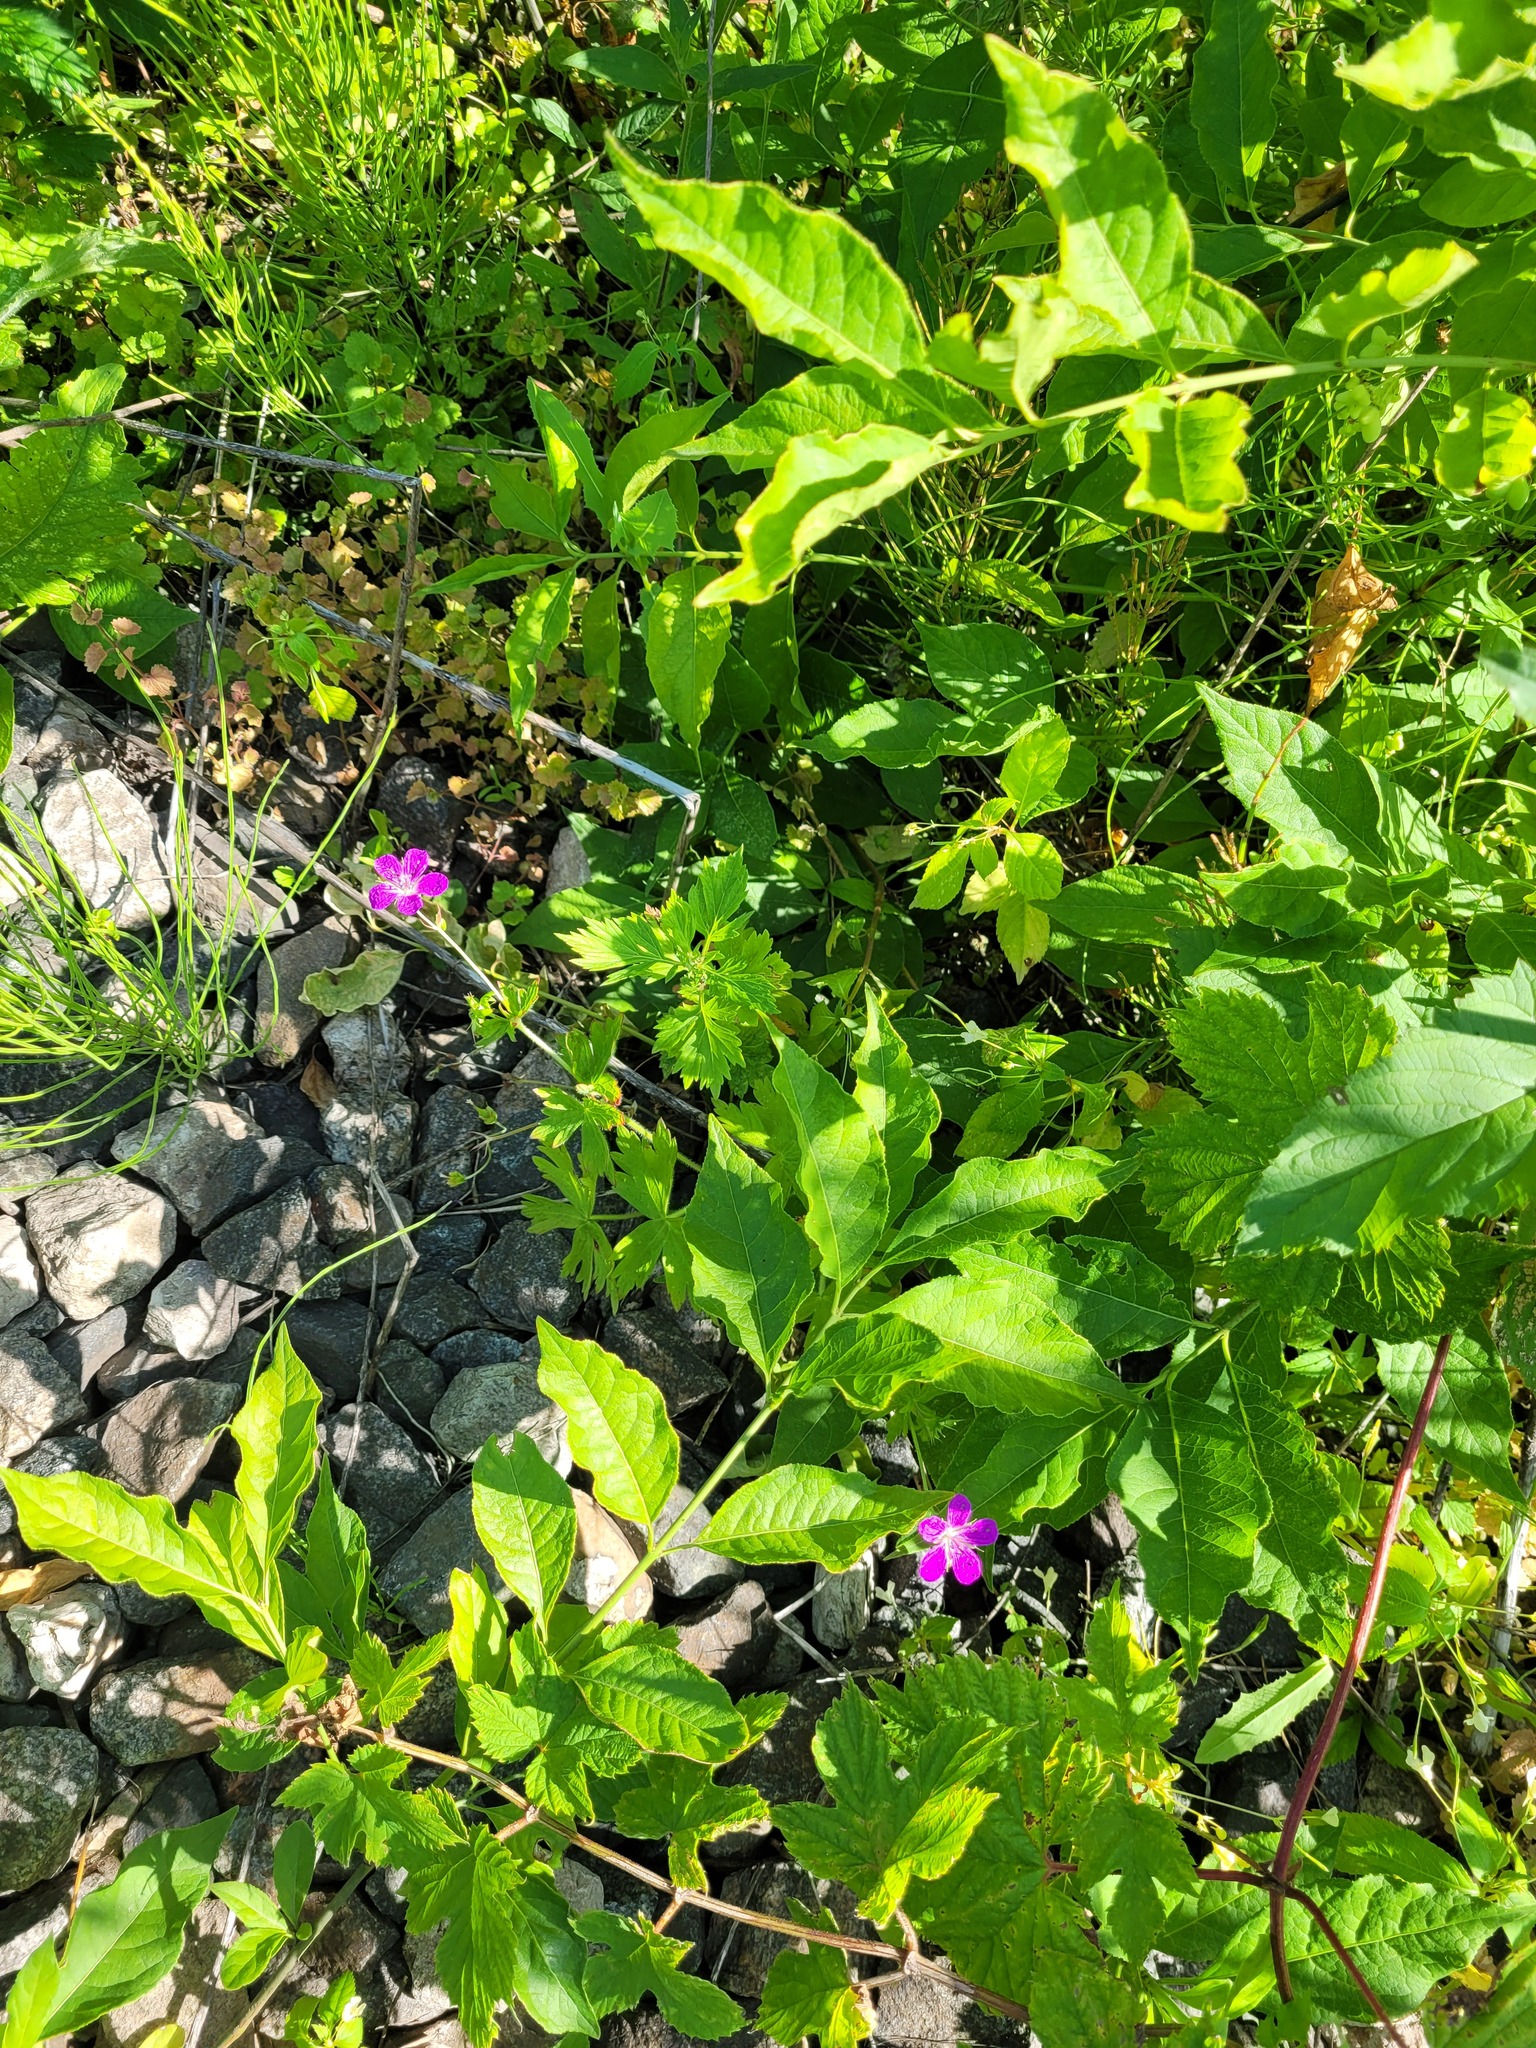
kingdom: Plantae
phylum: Tracheophyta
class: Magnoliopsida
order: Geraniales
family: Geraniaceae
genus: Geranium
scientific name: Geranium palustre
